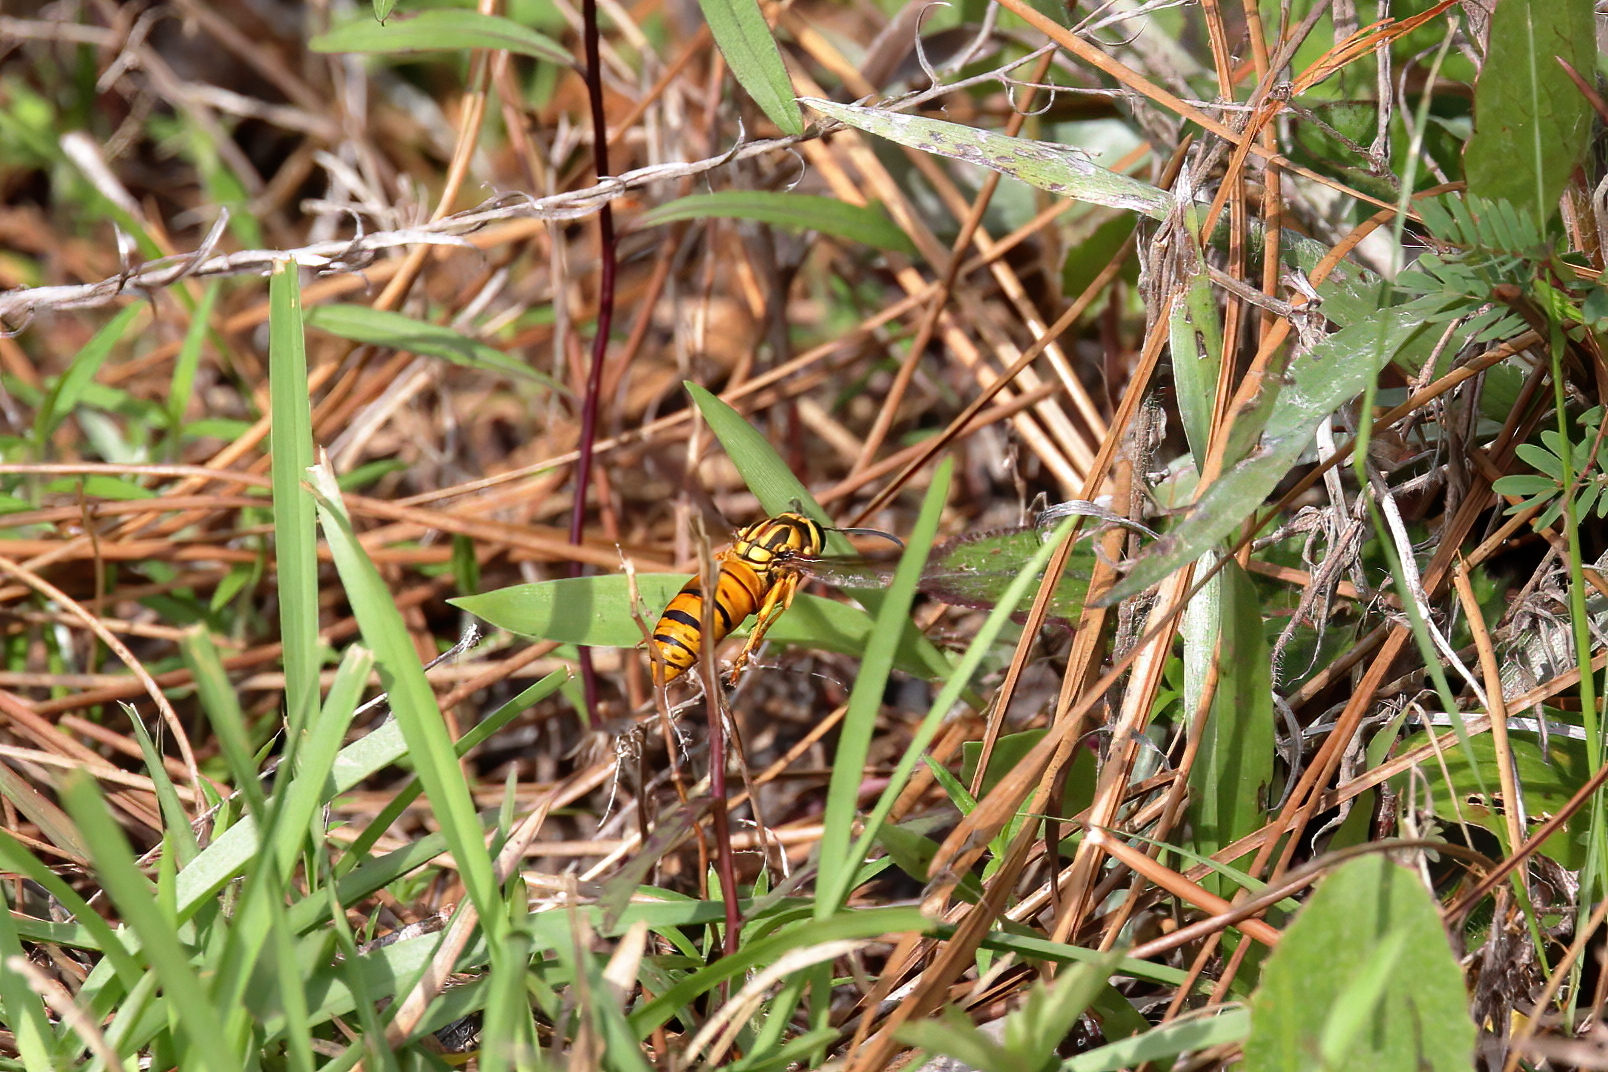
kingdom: Animalia
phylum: Arthropoda
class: Insecta
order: Hymenoptera
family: Vespidae
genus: Vespula
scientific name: Vespula squamosa
